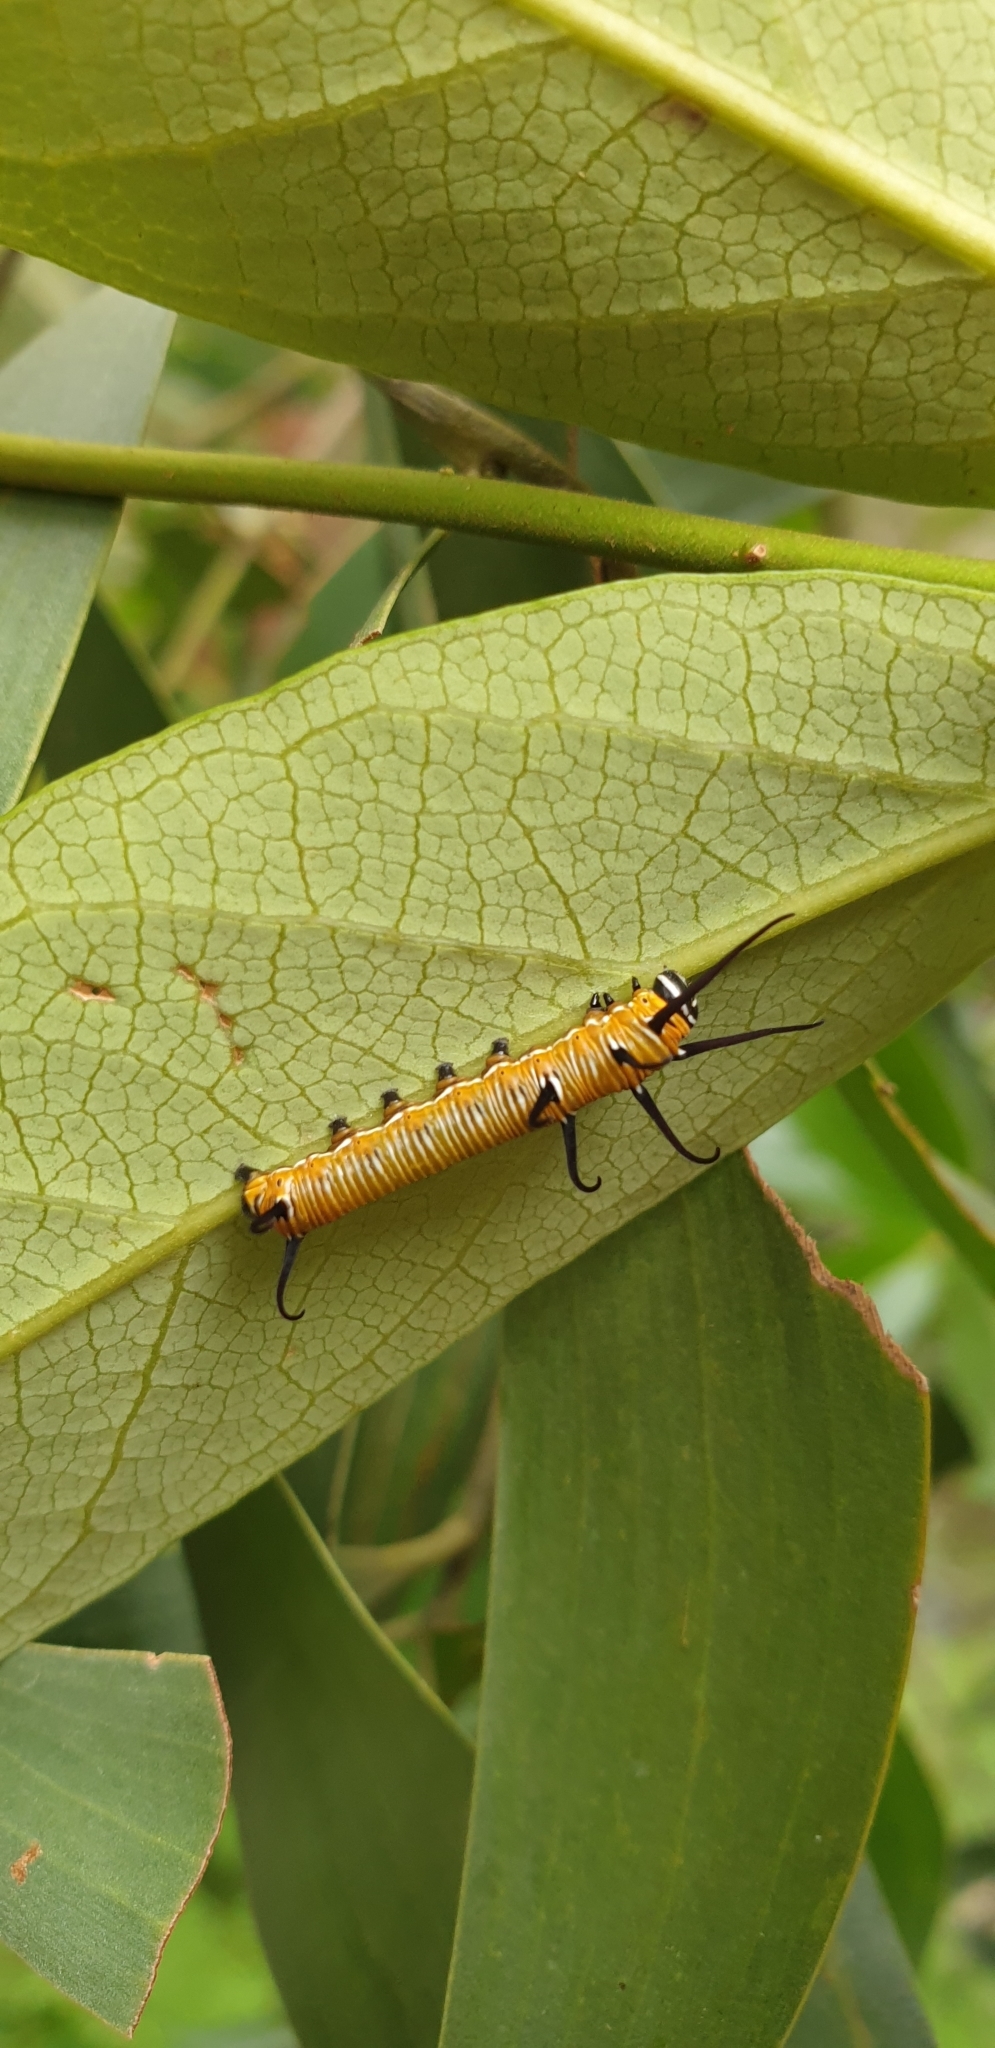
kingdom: Animalia
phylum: Arthropoda
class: Insecta
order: Lepidoptera
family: Nymphalidae
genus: Euploea
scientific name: Euploea core
